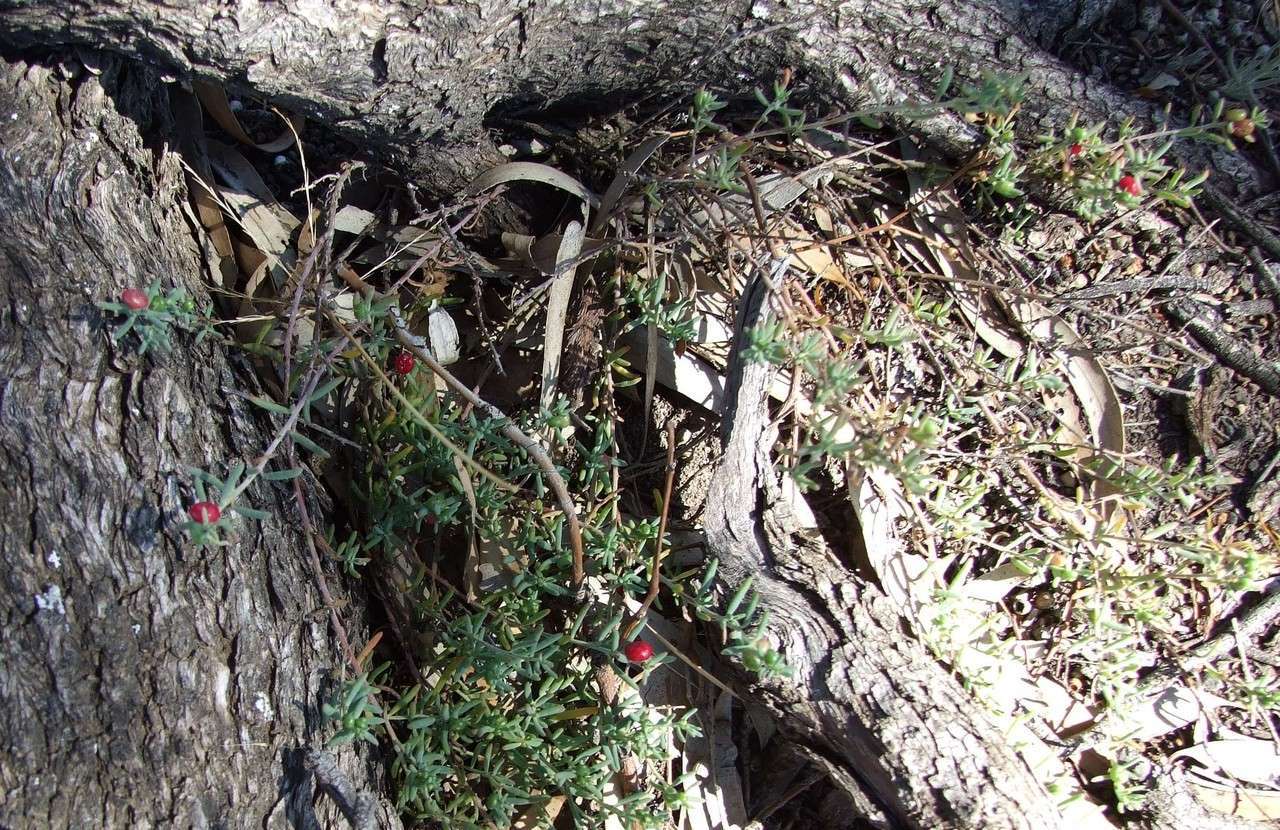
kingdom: Plantae
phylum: Tracheophyta
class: Magnoliopsida
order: Caryophyllales
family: Amaranthaceae
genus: Enchylaena
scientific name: Enchylaena tomentosa
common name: Ruby saltbush
